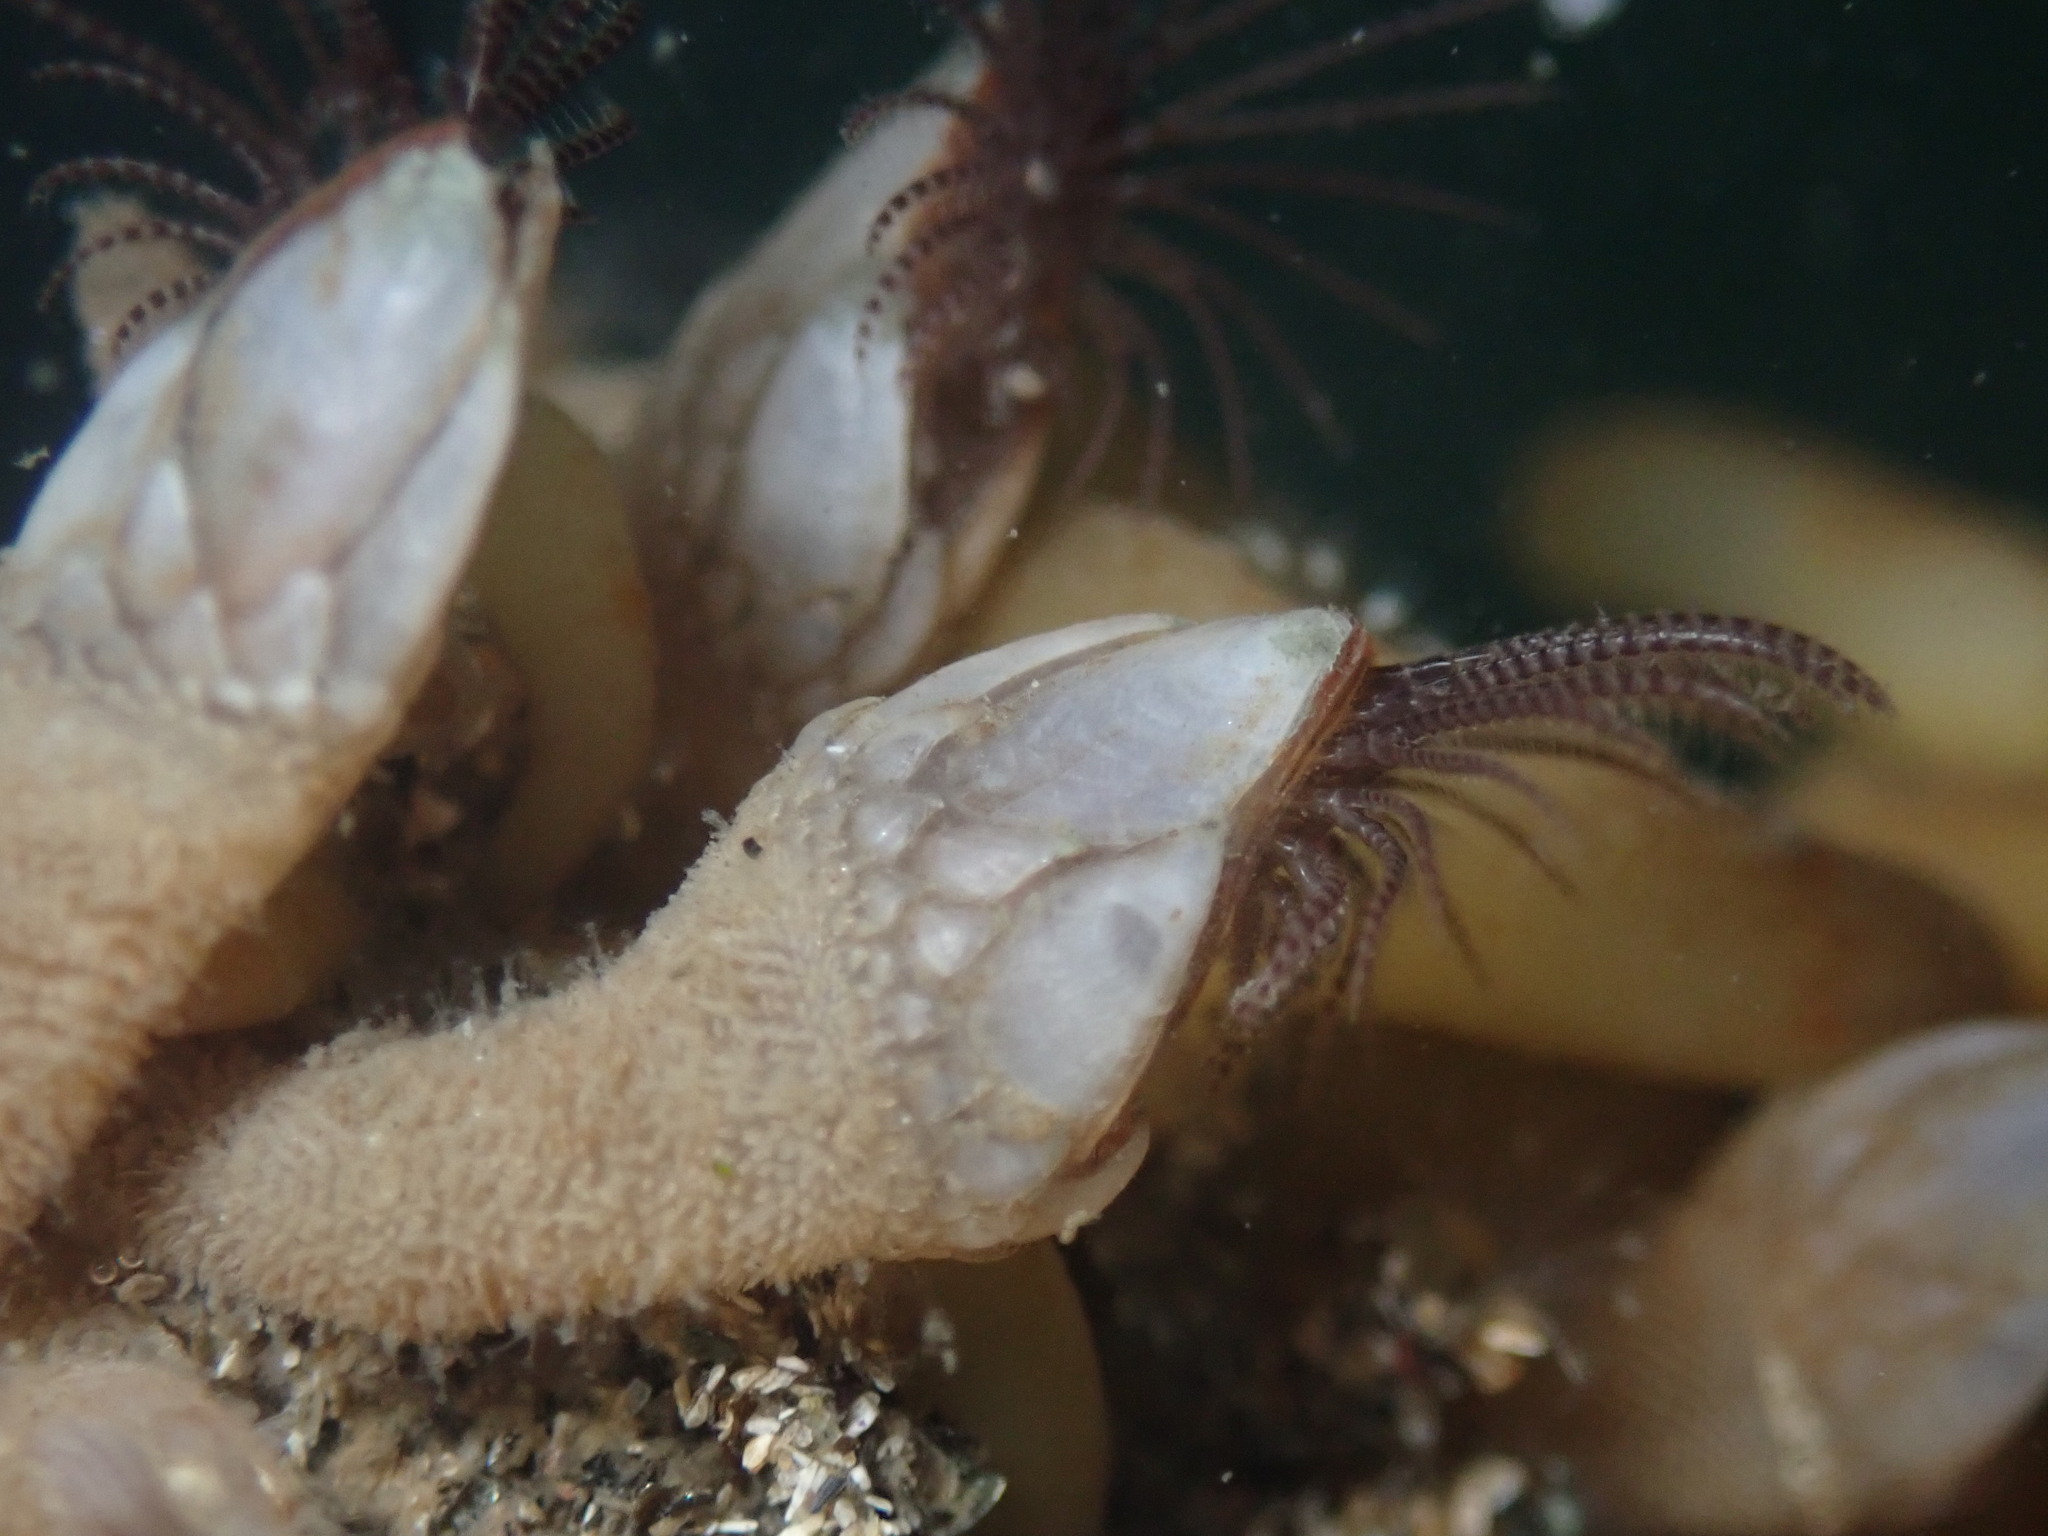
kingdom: Animalia
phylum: Arthropoda
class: Maxillopoda
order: Pedunculata
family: Pollicipedidae
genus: Pollicipes
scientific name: Pollicipes polymerus
